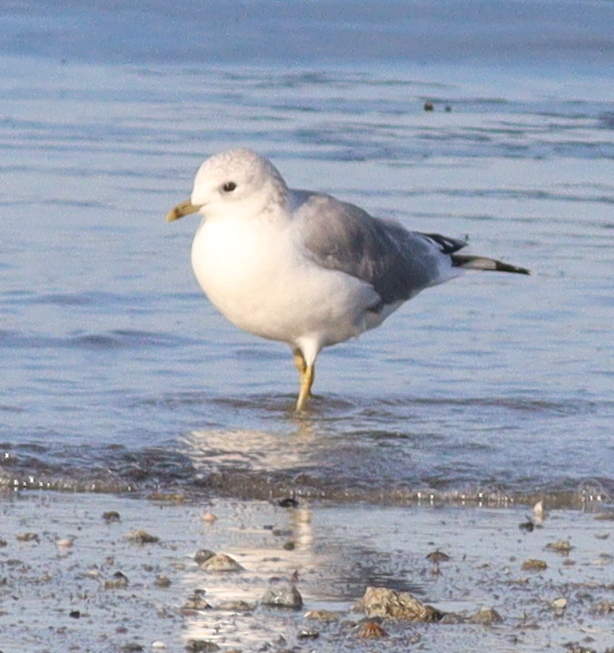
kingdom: Animalia
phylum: Chordata
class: Aves
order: Charadriiformes
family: Laridae
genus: Larus
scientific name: Larus canus
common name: Mew gull
